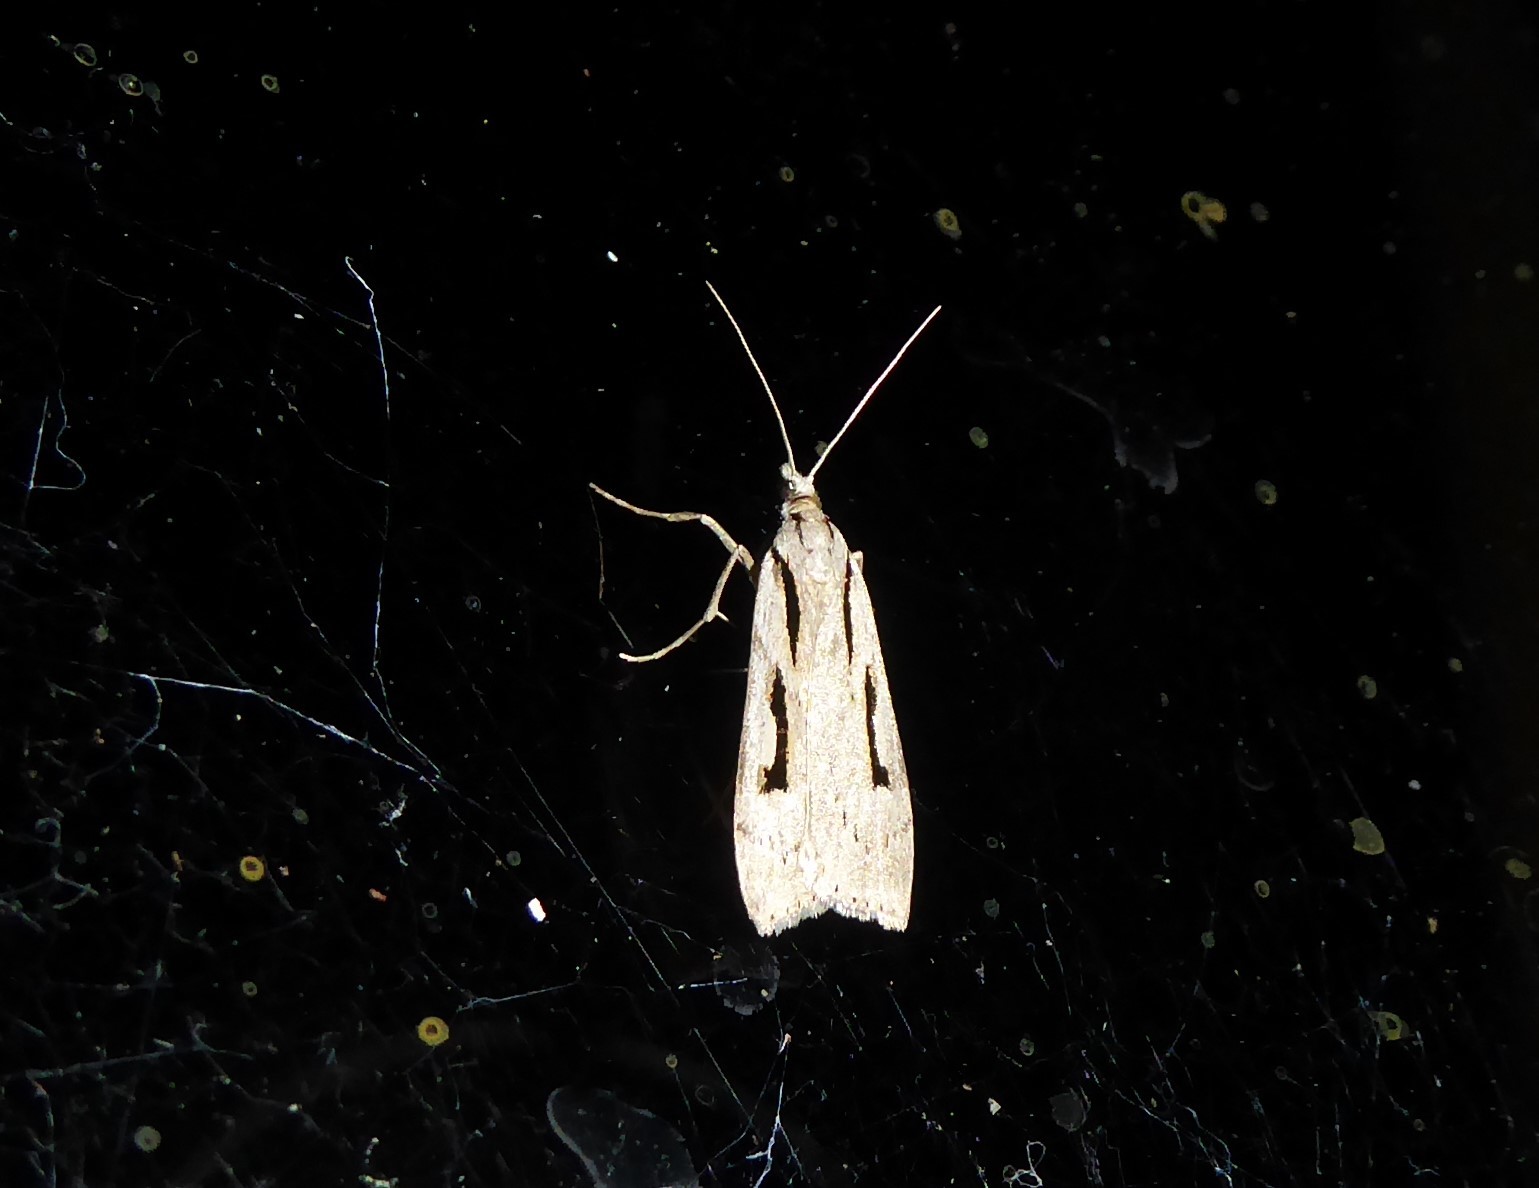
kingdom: Animalia
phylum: Arthropoda
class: Insecta
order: Lepidoptera
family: Crambidae
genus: Scoparia
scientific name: Scoparia rotuellus
